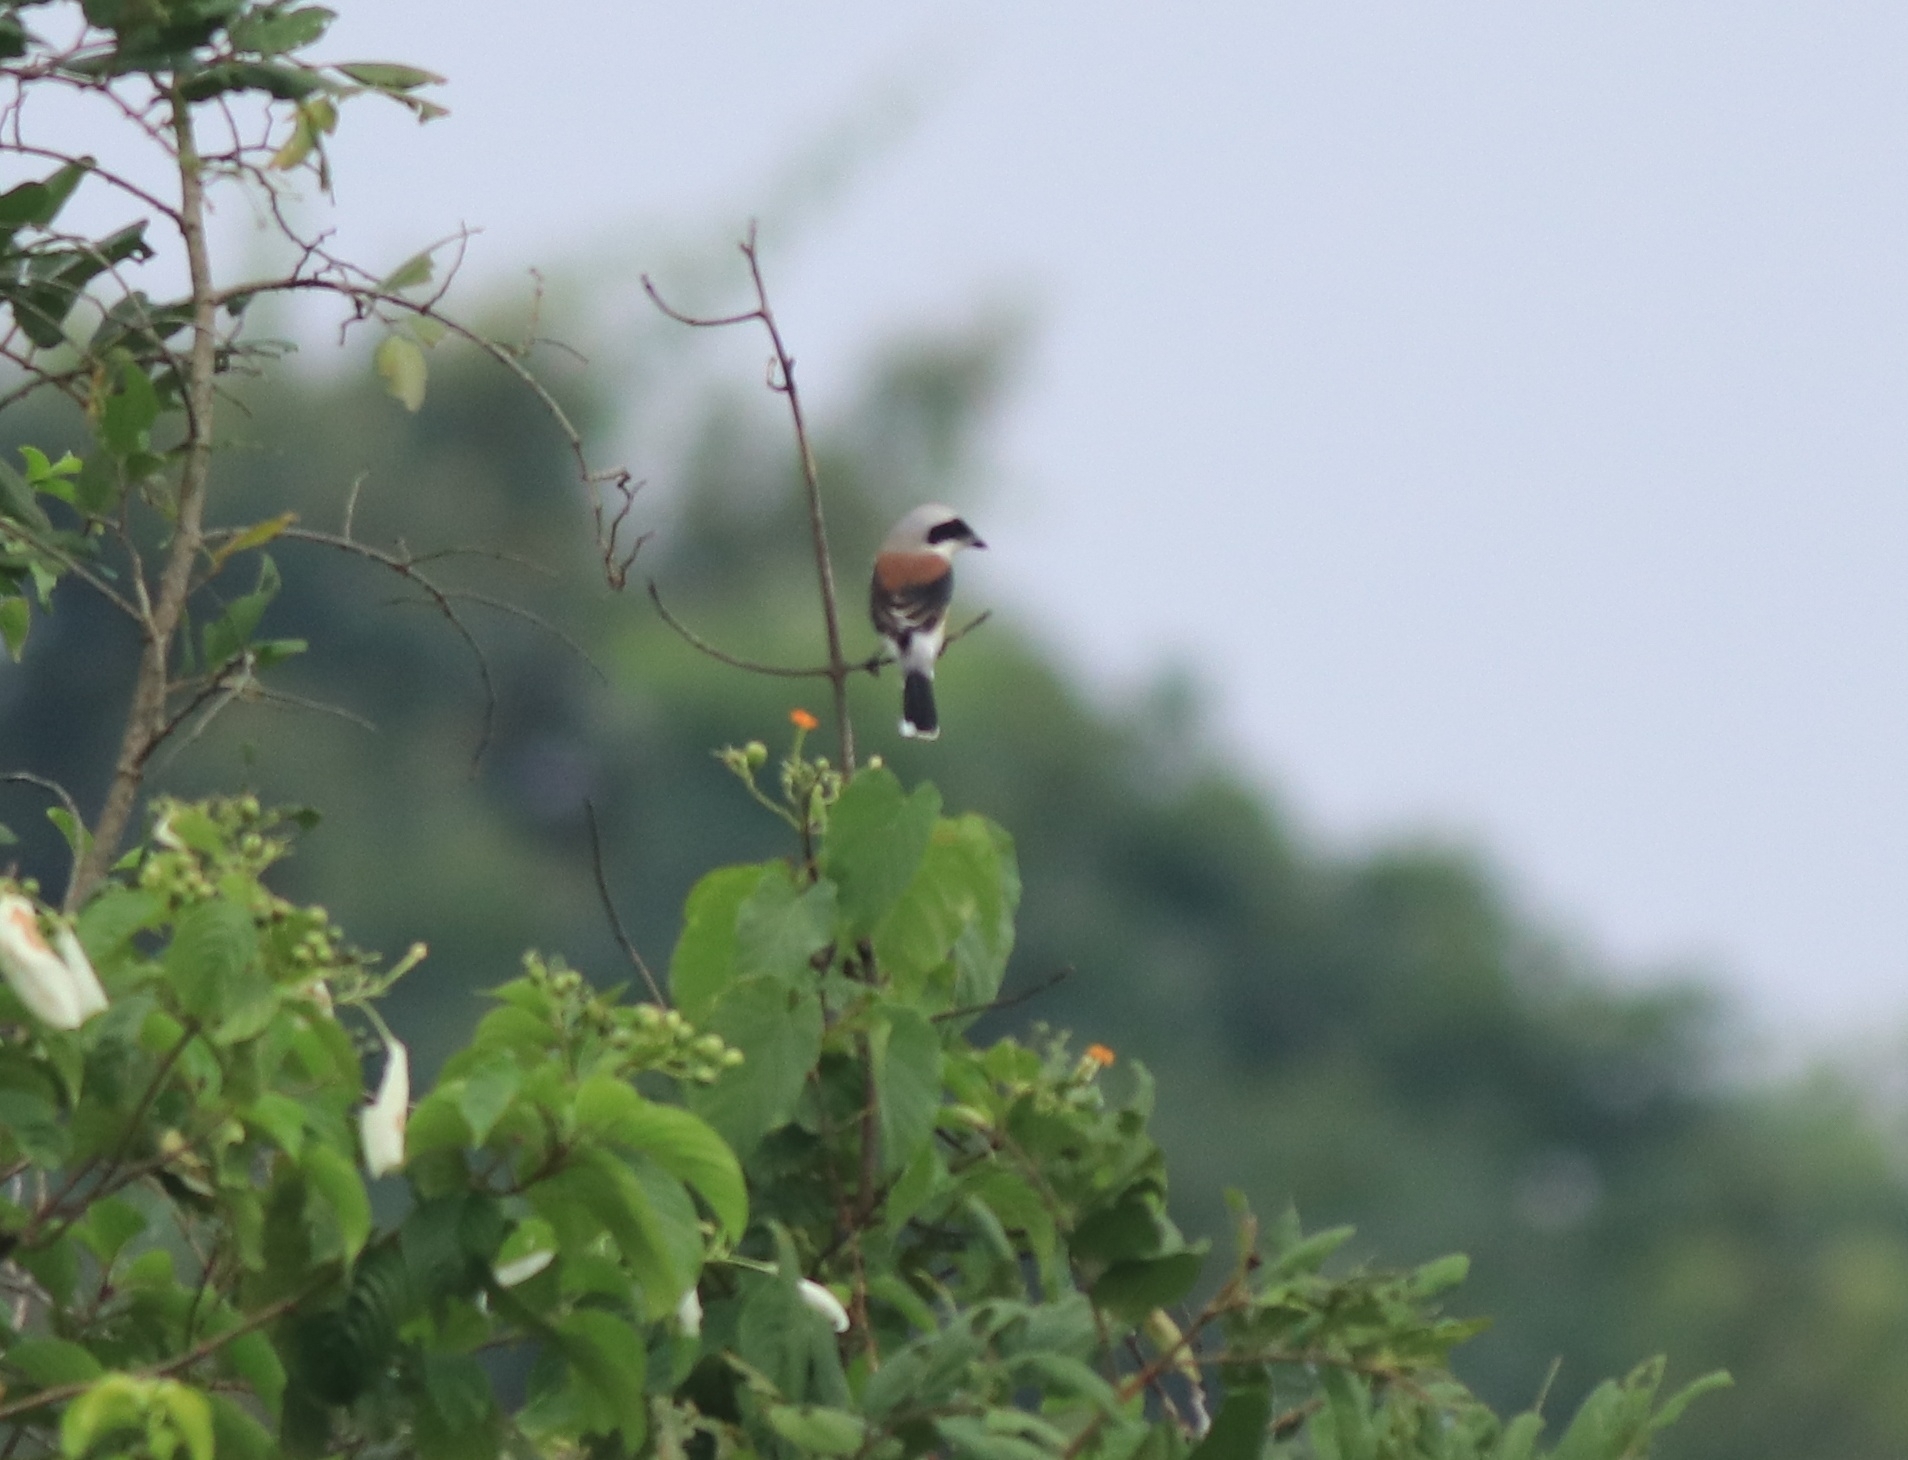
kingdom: Animalia
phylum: Chordata
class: Aves
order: Passeriformes
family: Laniidae
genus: Lanius
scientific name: Lanius vittatus
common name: Bay-backed shrike
